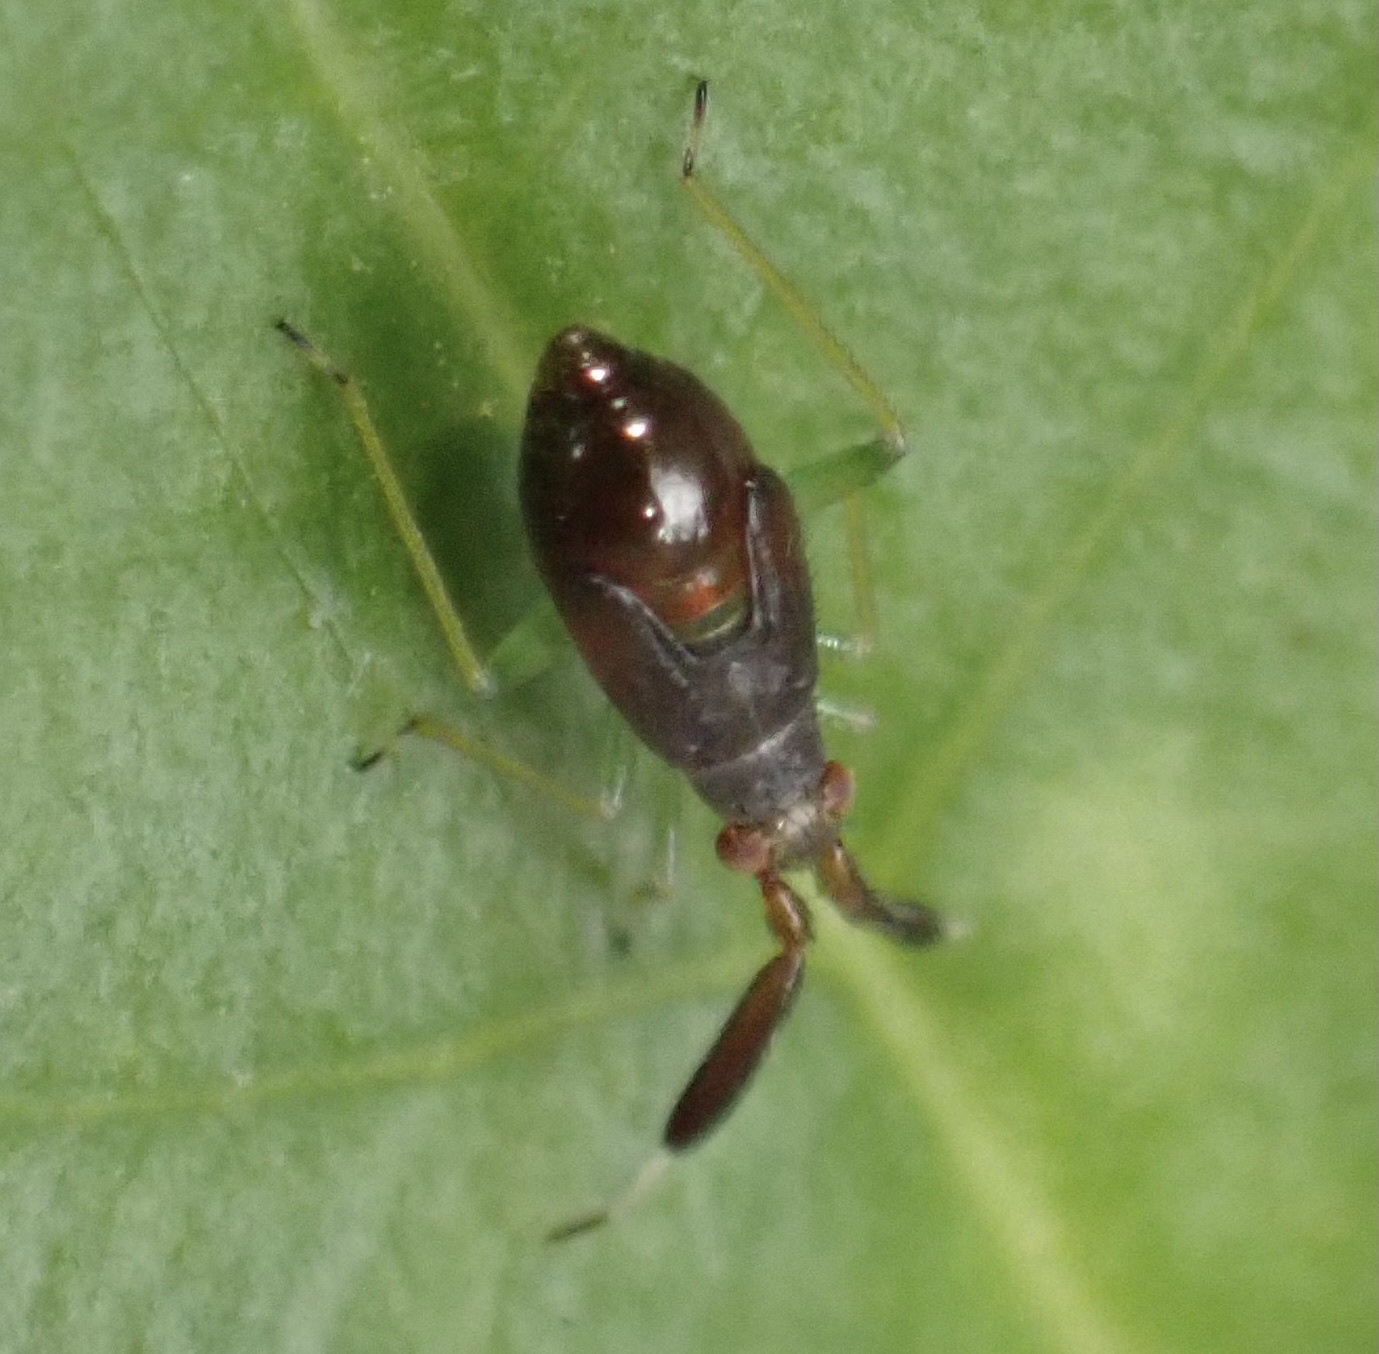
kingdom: Animalia
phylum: Arthropoda
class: Insecta
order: Hemiptera
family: Miridae
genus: Heterotoma
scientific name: Heterotoma planicornis
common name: Plant bug
